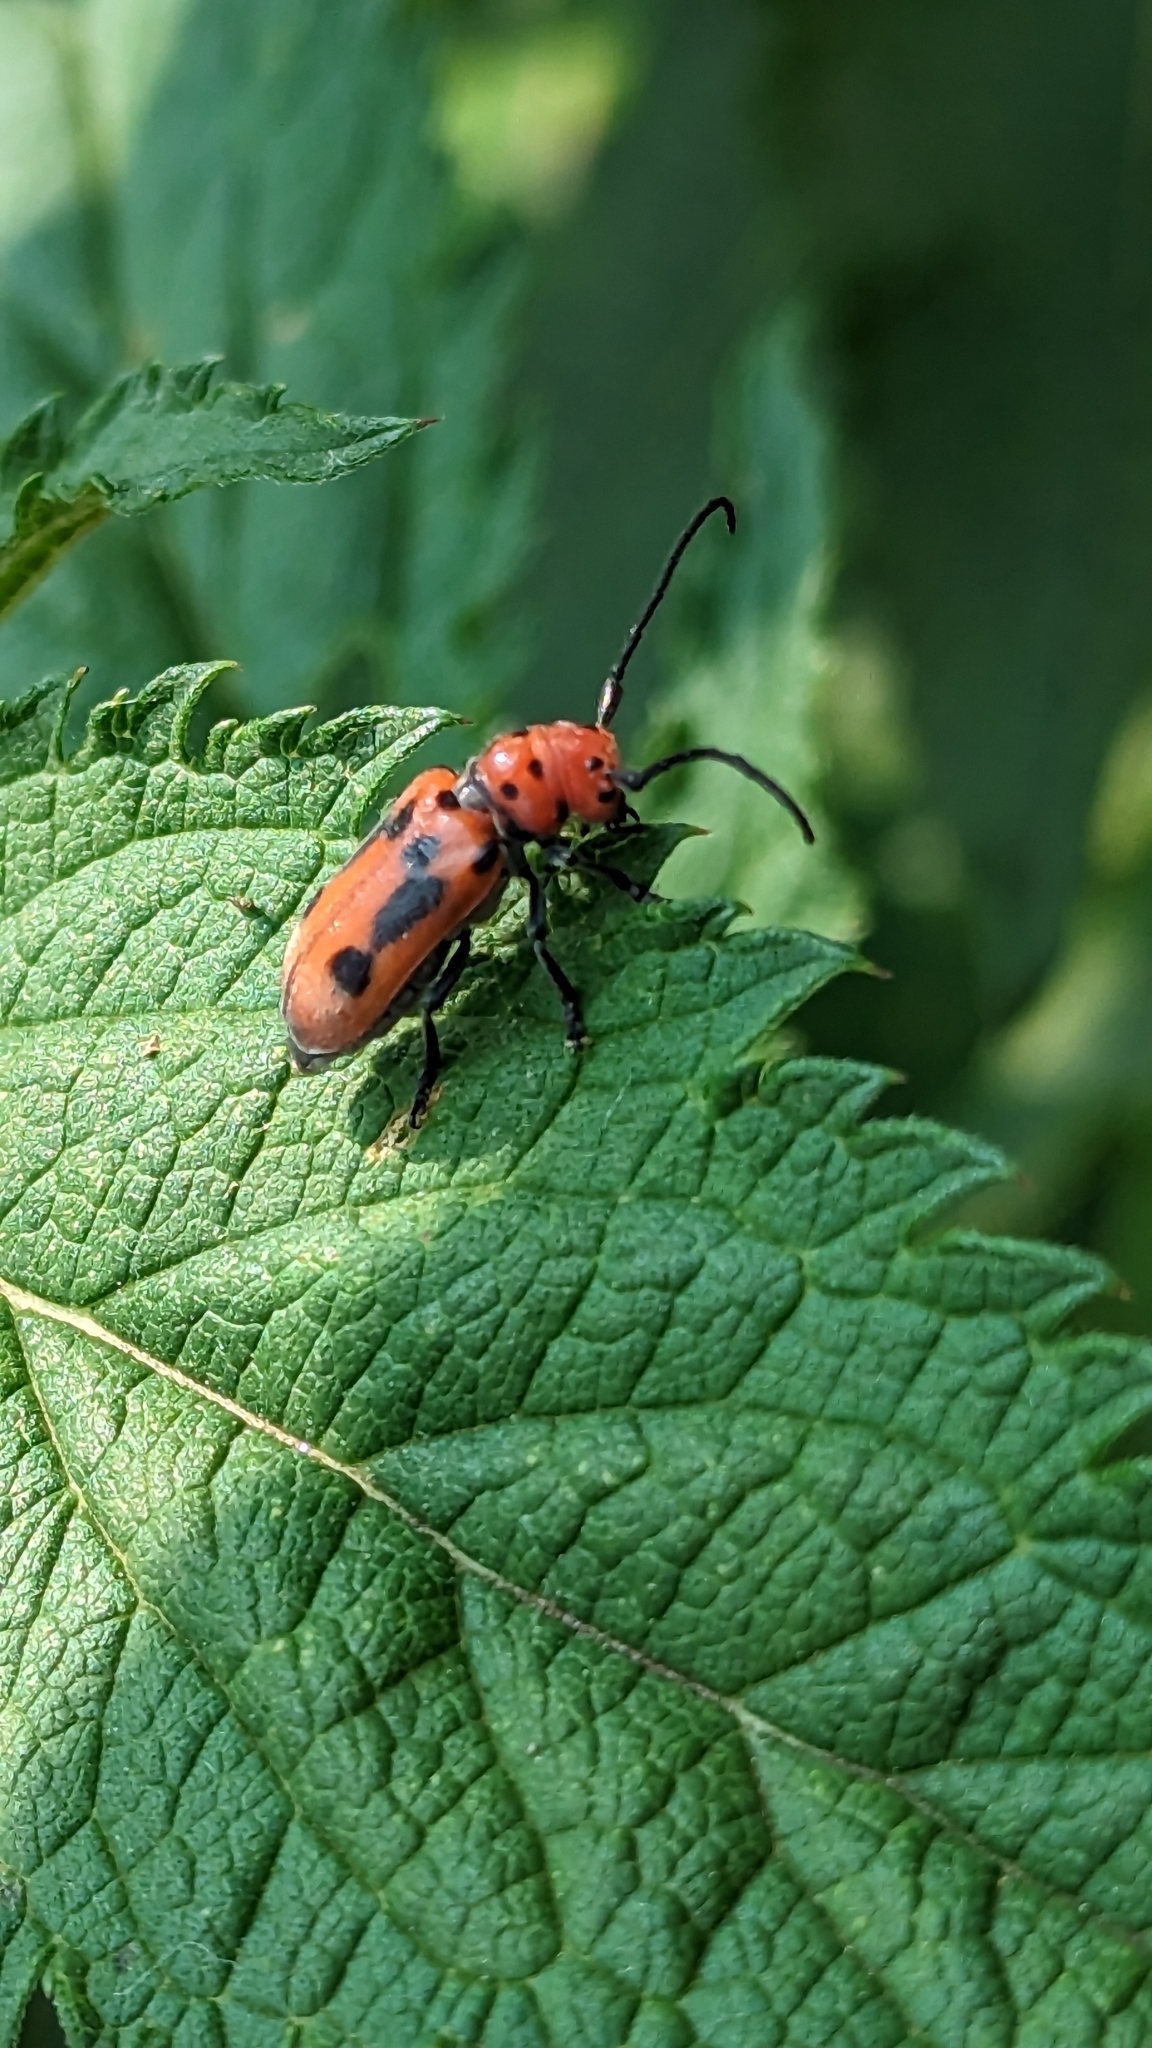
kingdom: Animalia
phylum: Arthropoda
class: Insecta
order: Coleoptera
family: Cerambycidae
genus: Tetraopes
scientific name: Tetraopes tetrophthalmus
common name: Red milkweed beetle
